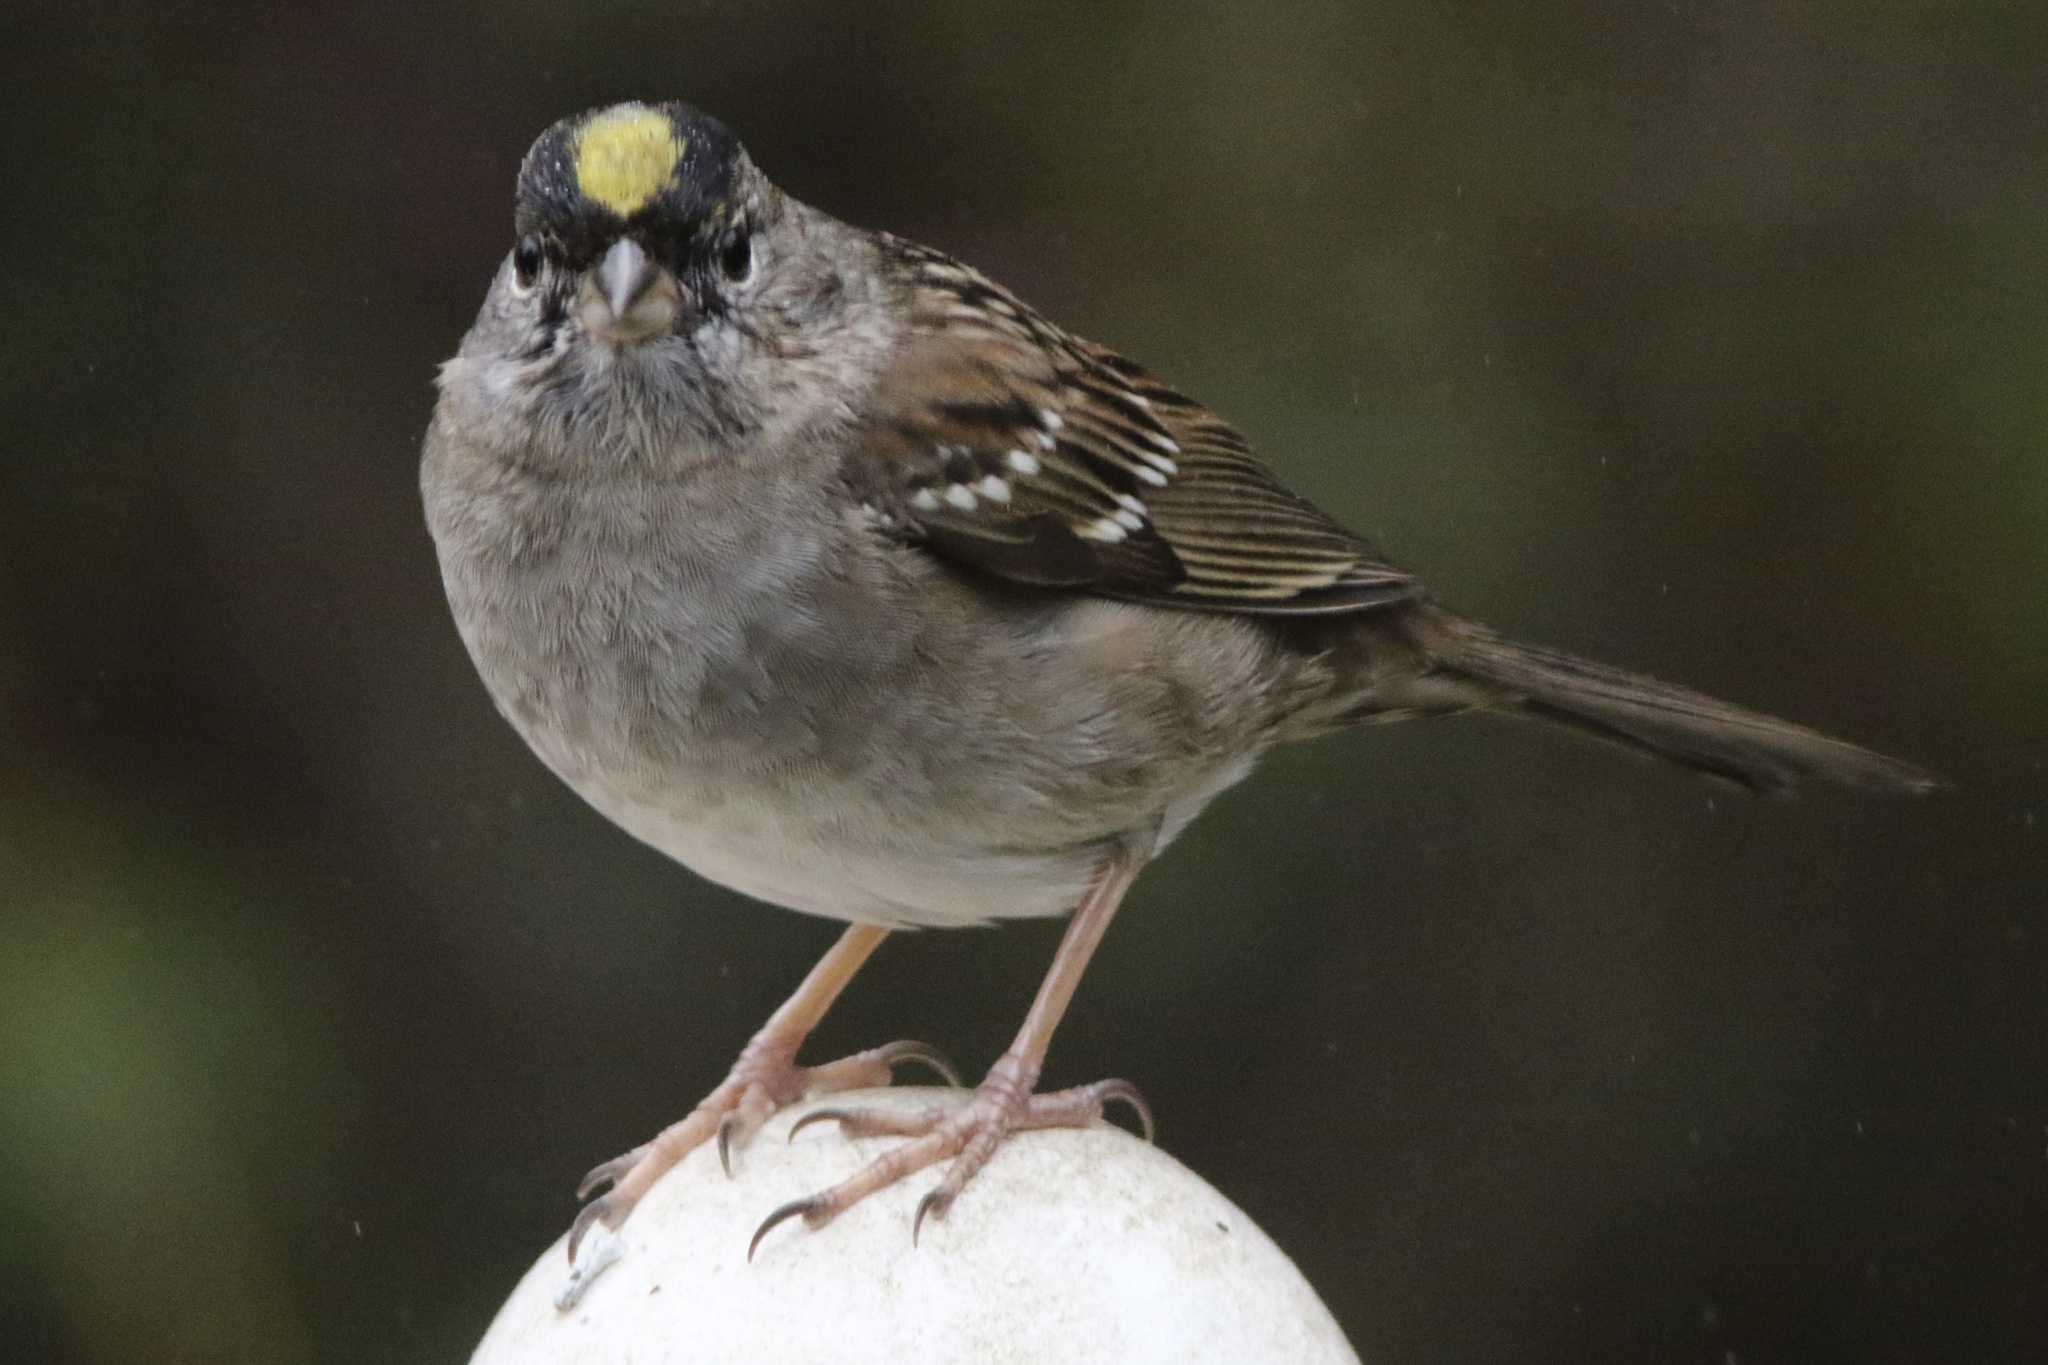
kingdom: Animalia
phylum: Chordata
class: Aves
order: Passeriformes
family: Passerellidae
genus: Zonotrichia
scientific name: Zonotrichia atricapilla
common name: Golden-crowned sparrow
